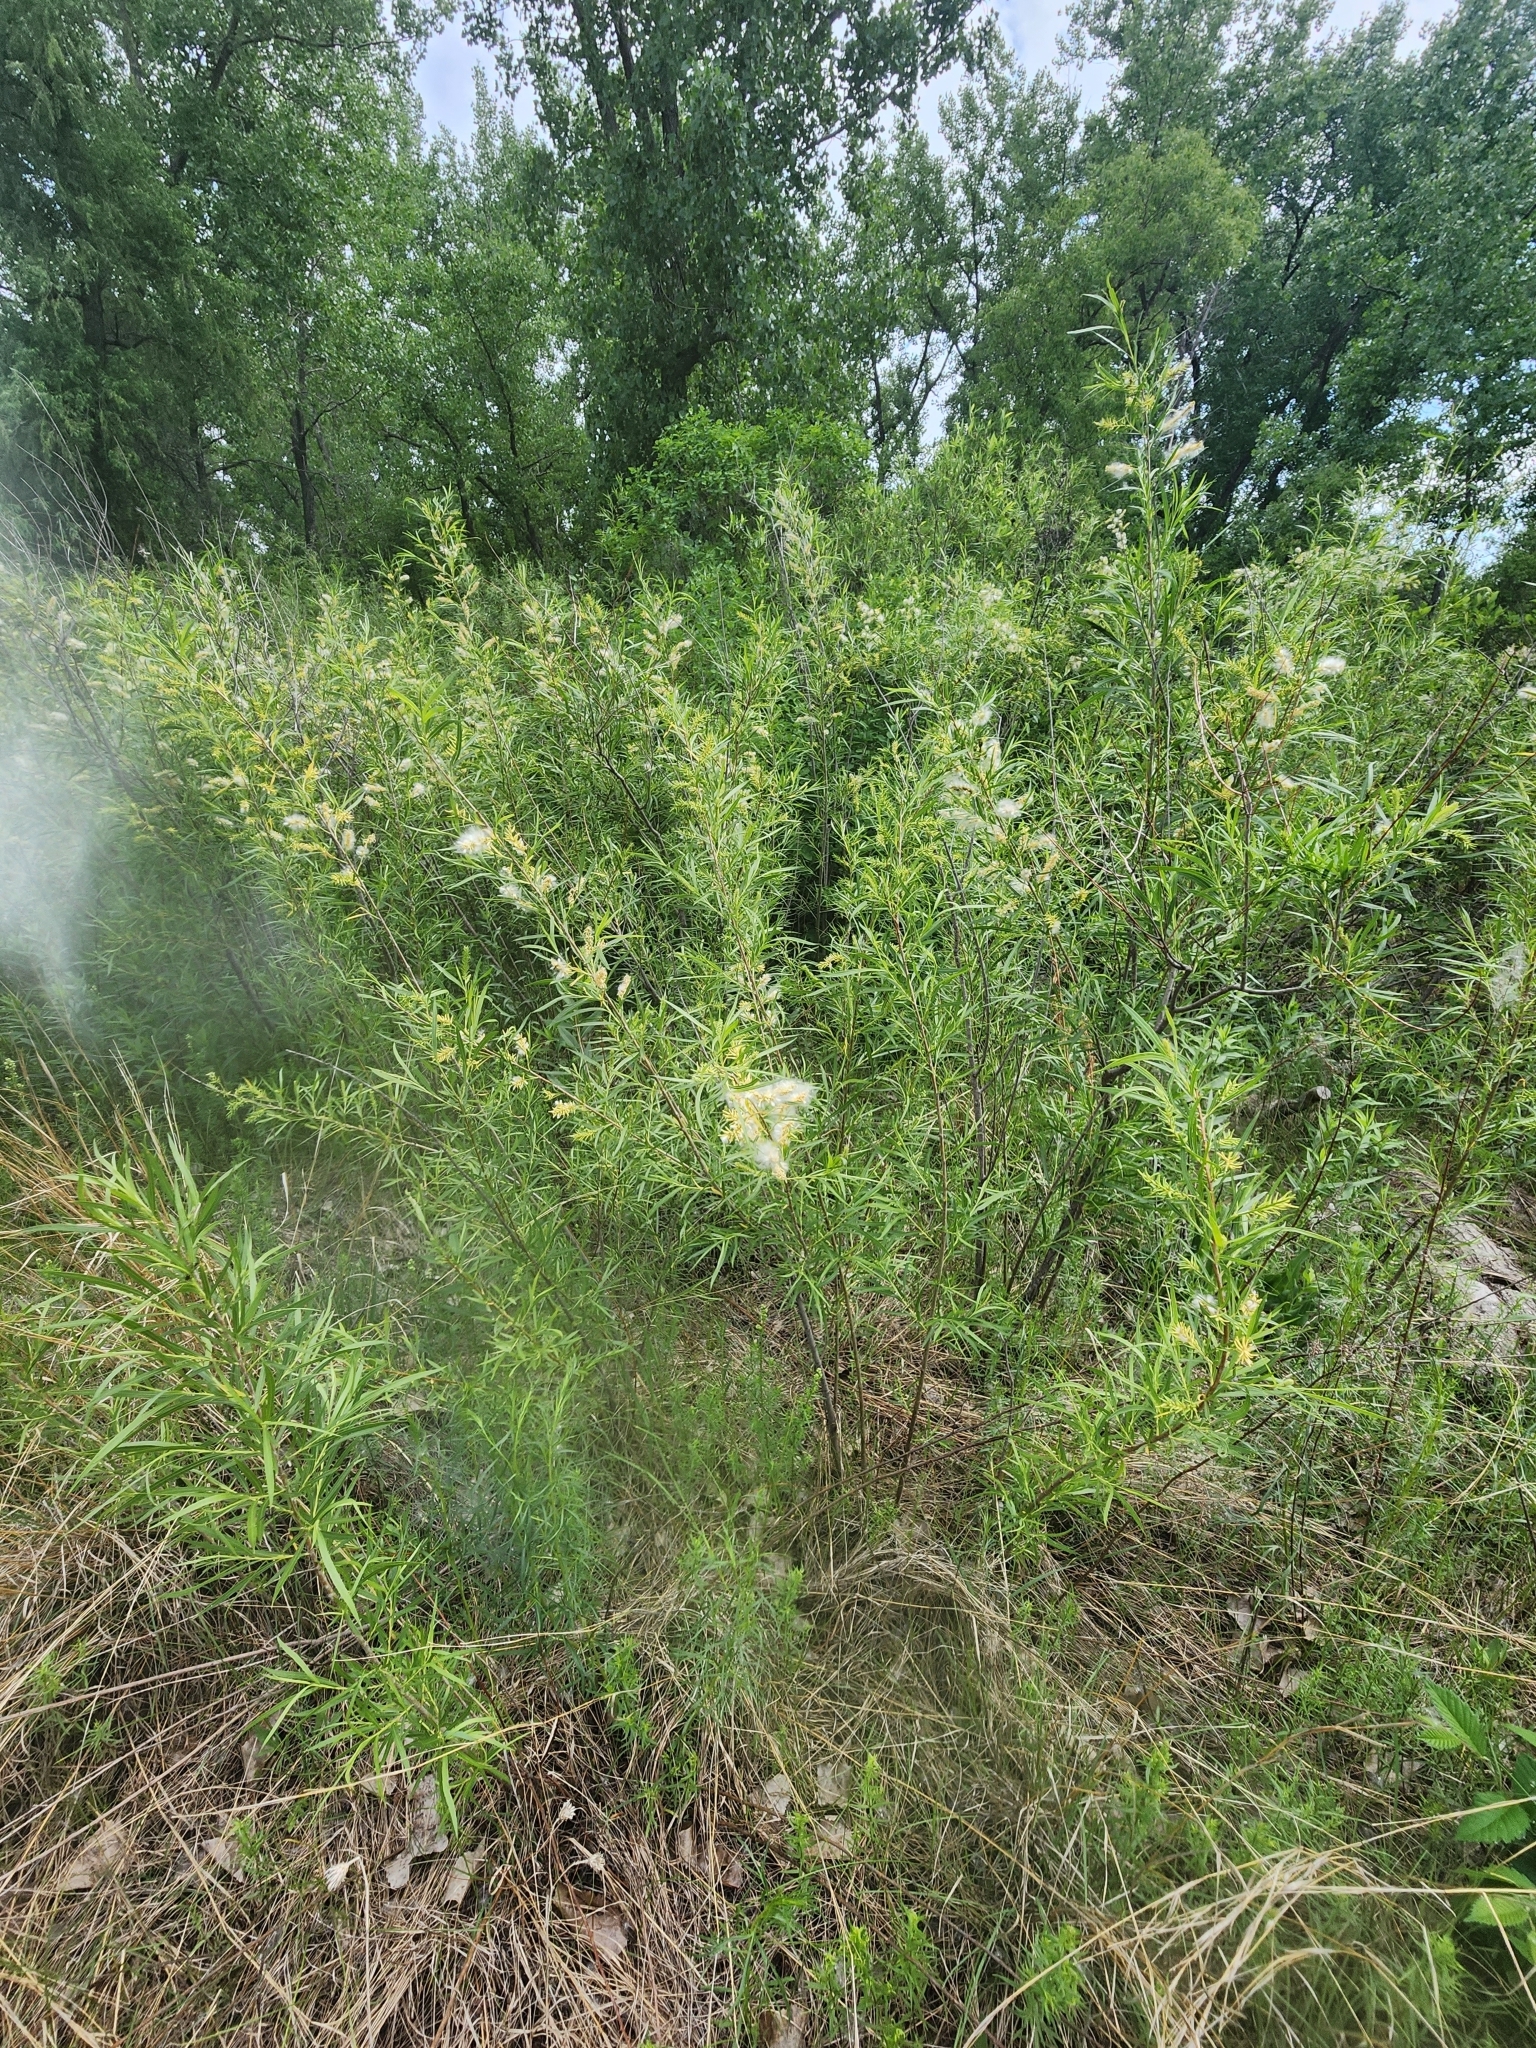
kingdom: Plantae
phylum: Tracheophyta
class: Magnoliopsida
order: Malpighiales
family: Salicaceae
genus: Salix
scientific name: Salix interior
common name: Sandbar willow
